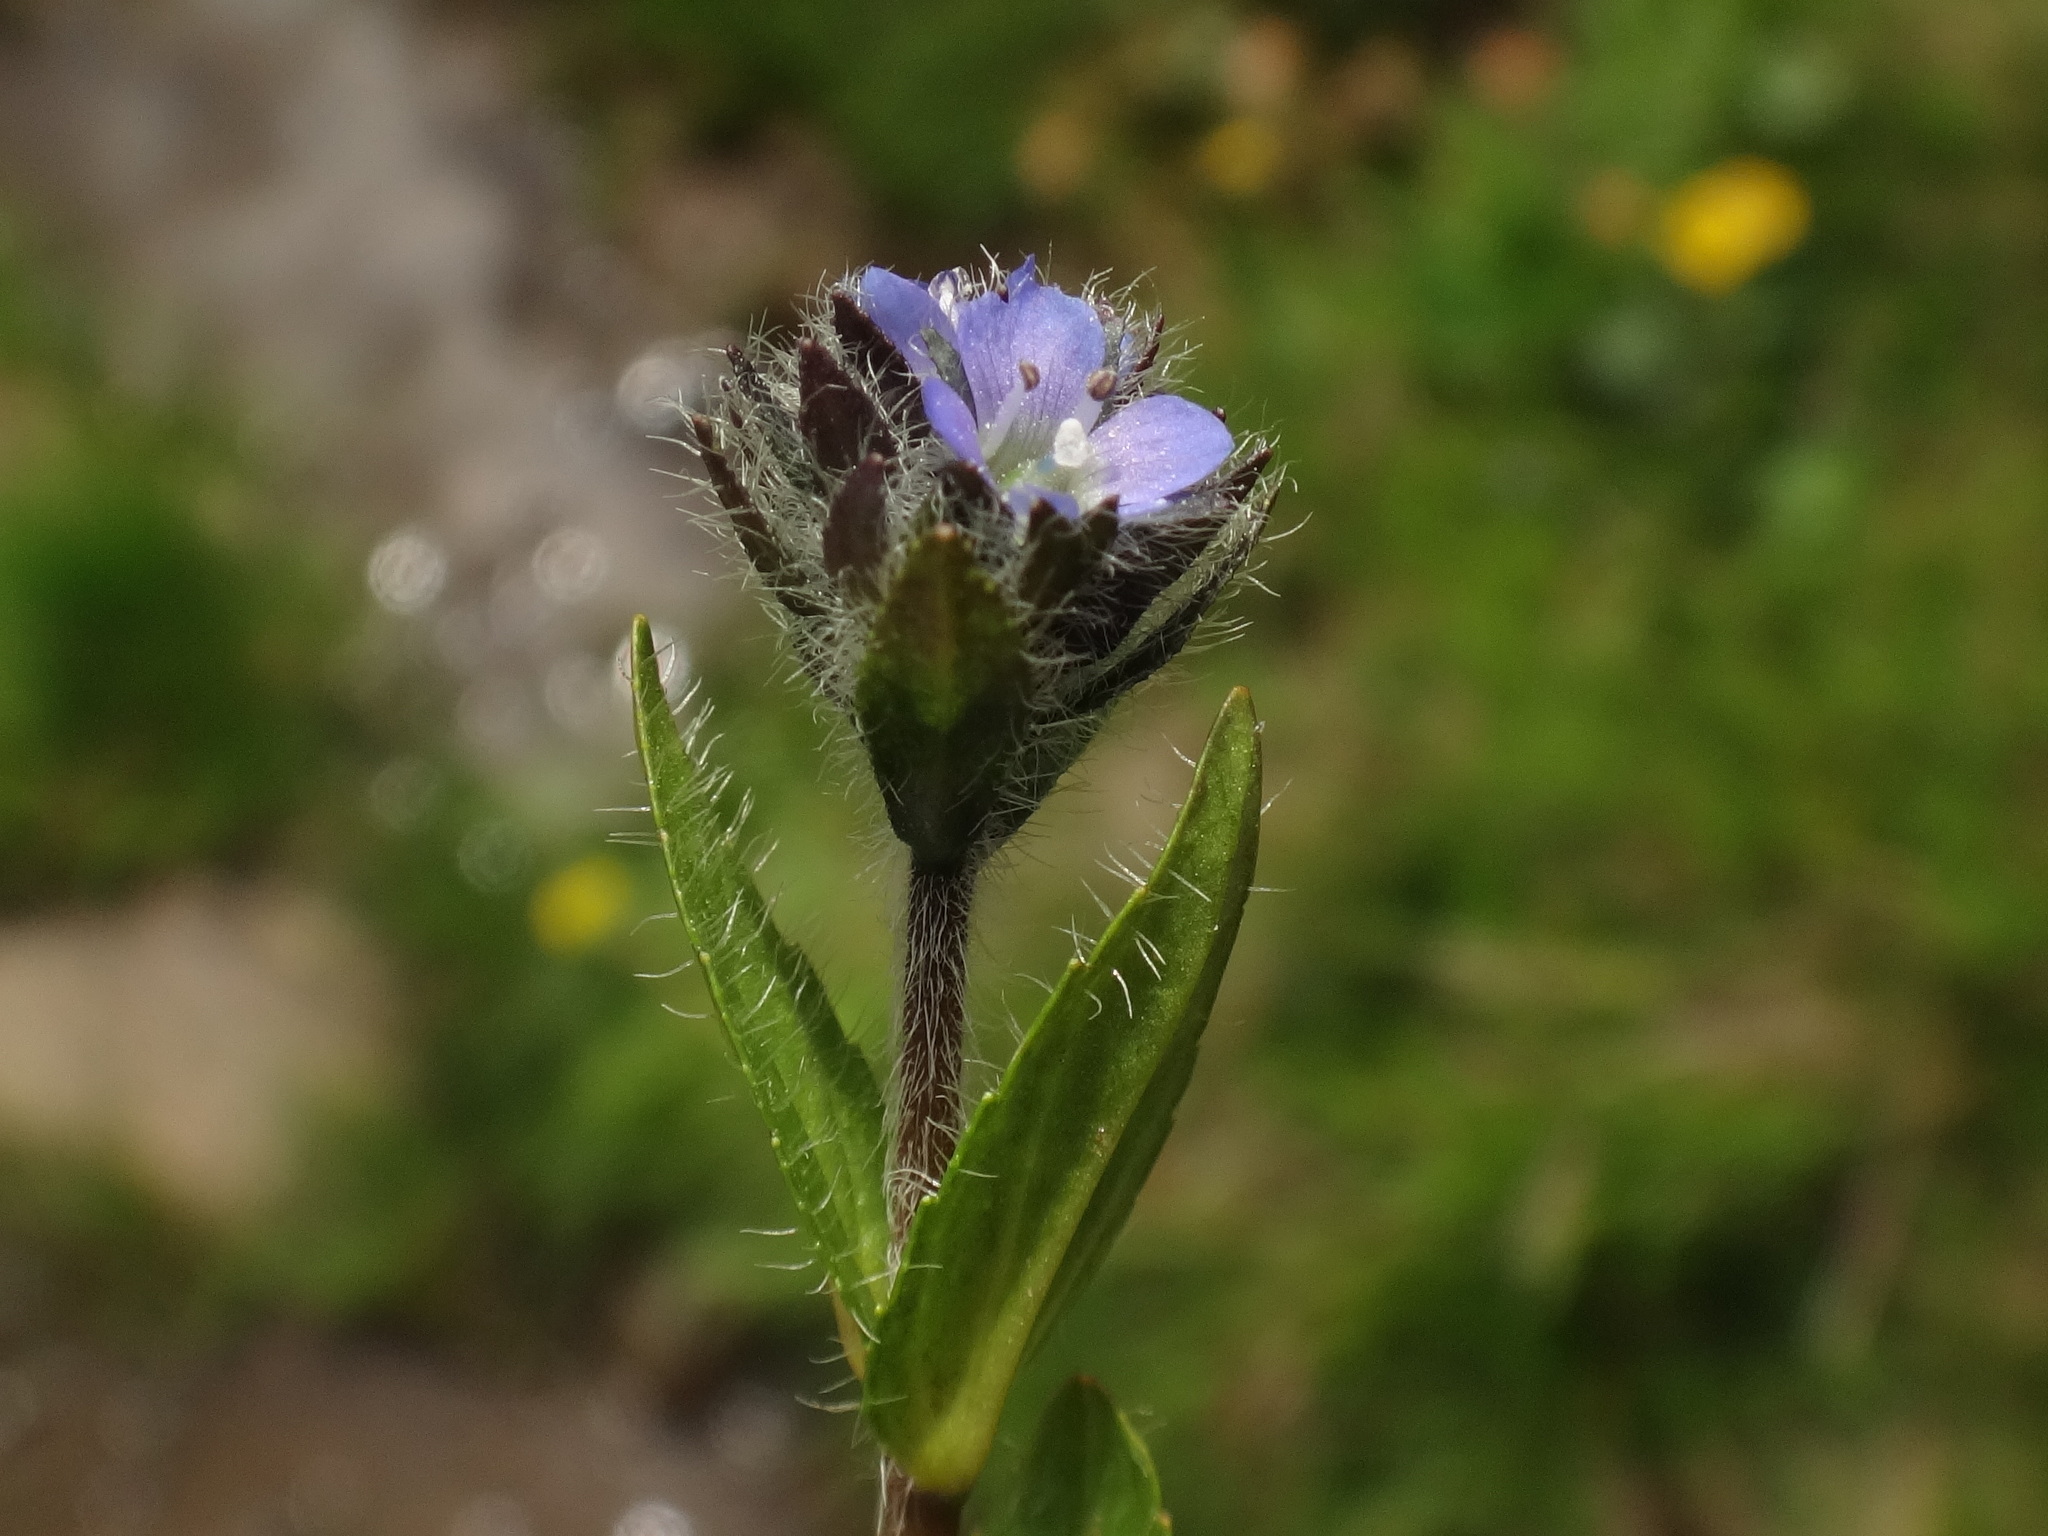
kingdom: Plantae
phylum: Tracheophyta
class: Magnoliopsida
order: Lamiales
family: Plantaginaceae
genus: Veronica
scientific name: Veronica alpina
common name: Alpine speedwell
